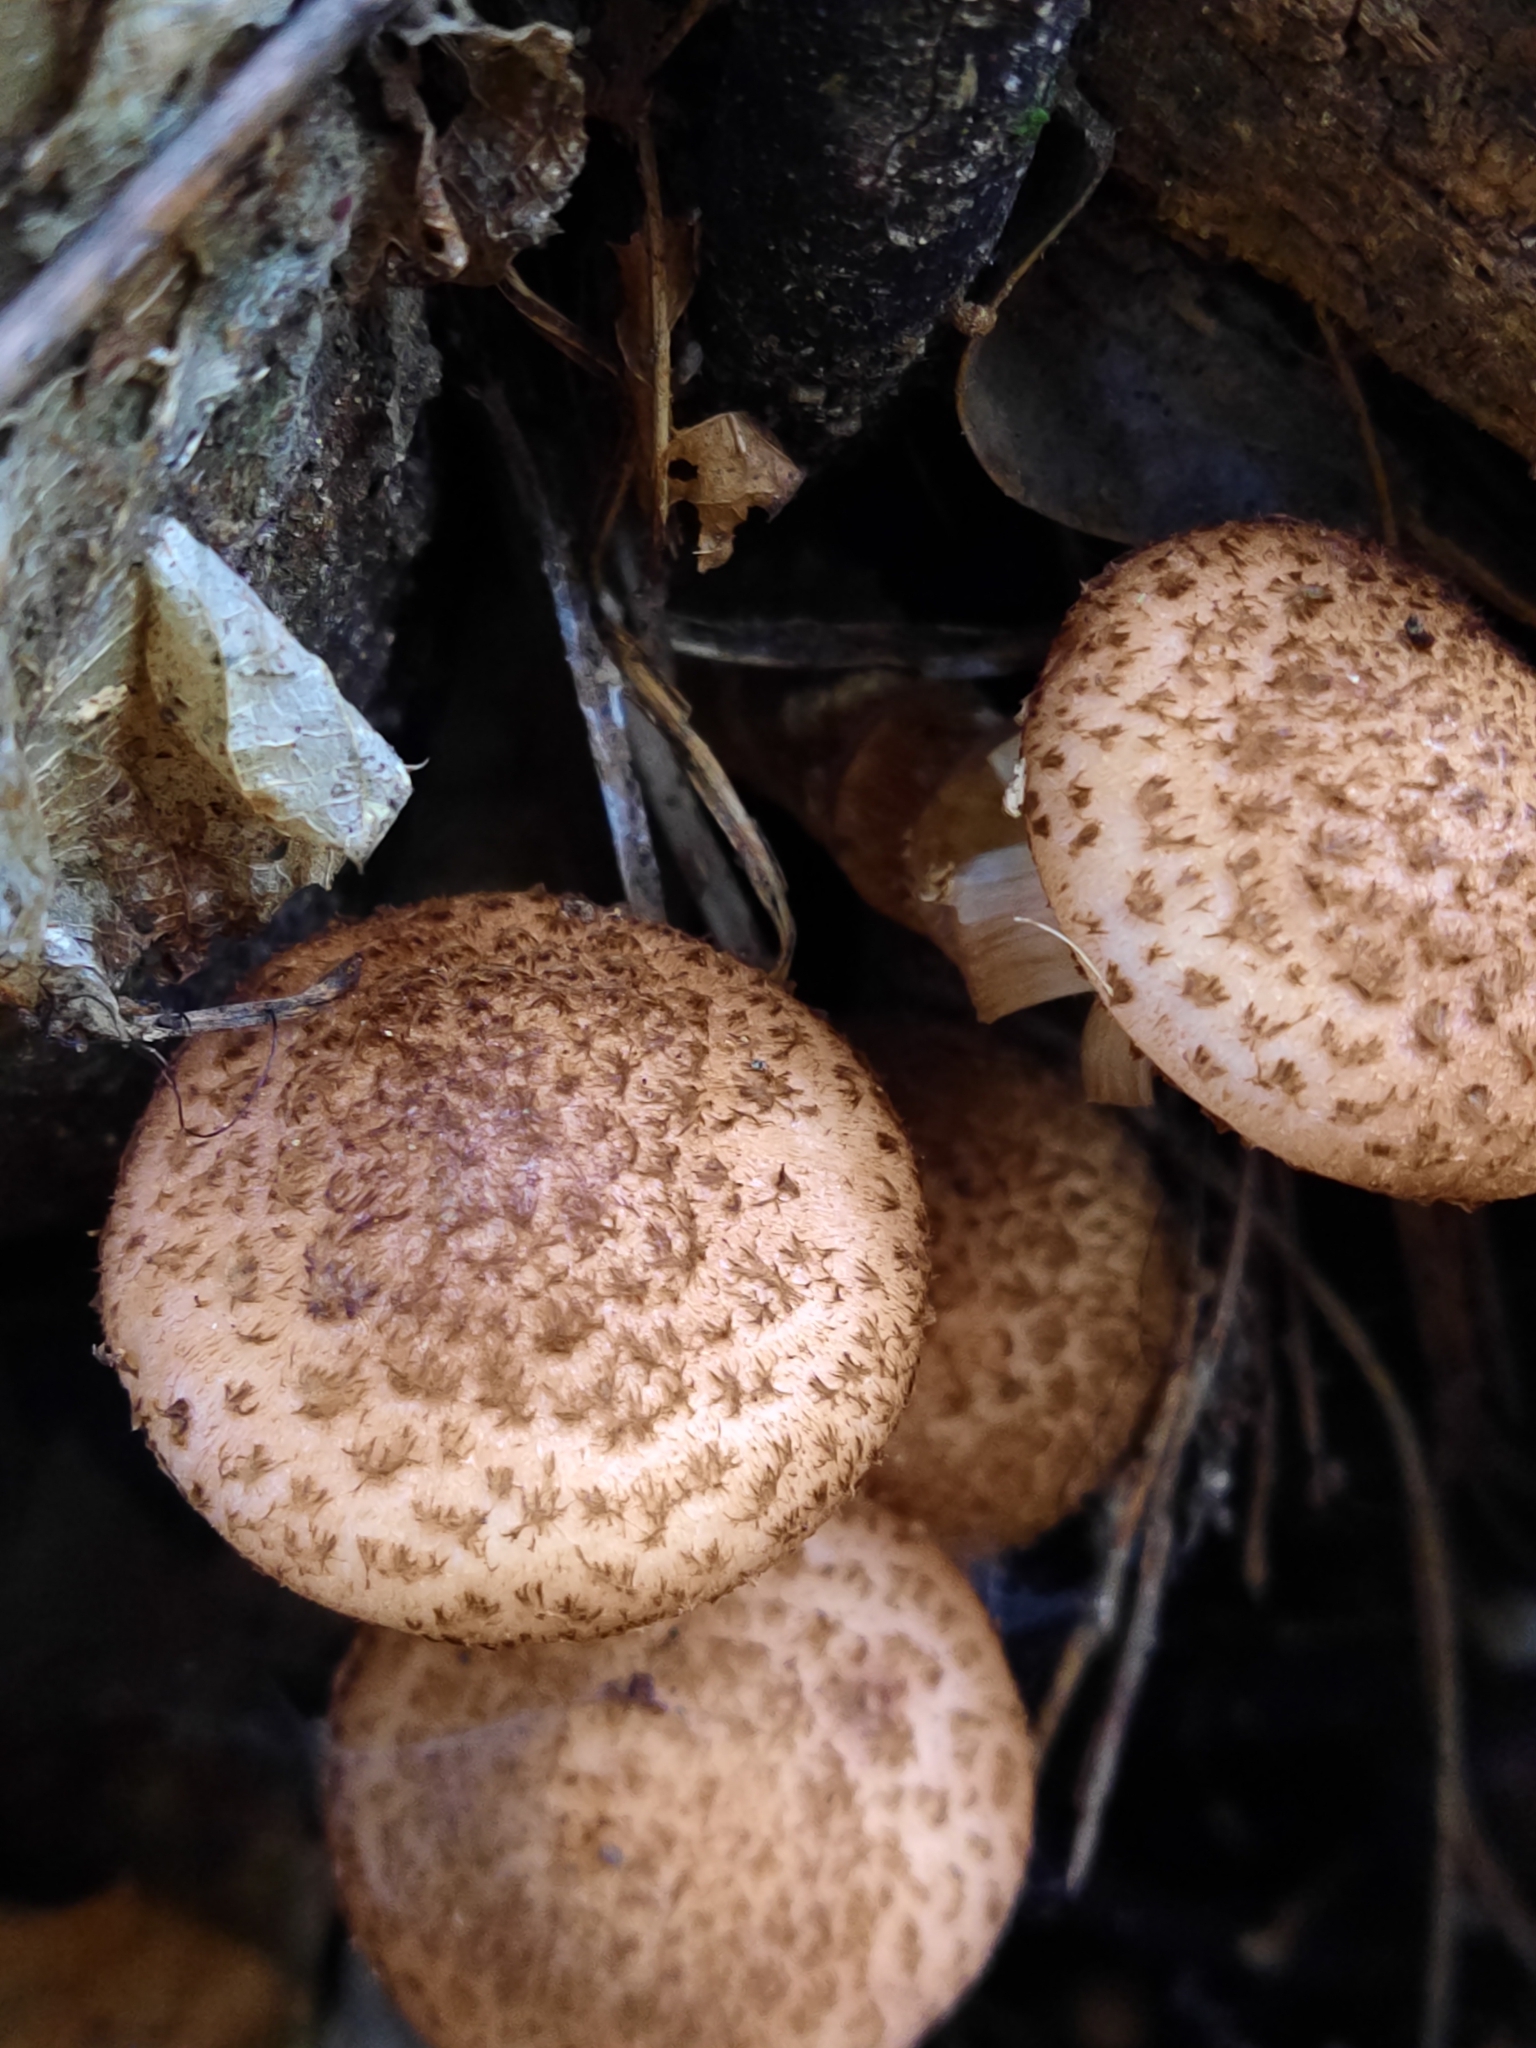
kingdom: Fungi
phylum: Basidiomycota
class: Agaricomycetes
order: Agaricales
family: Physalacriaceae
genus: Armillaria
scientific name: Armillaria ostoyae
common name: Dark honey fungus
